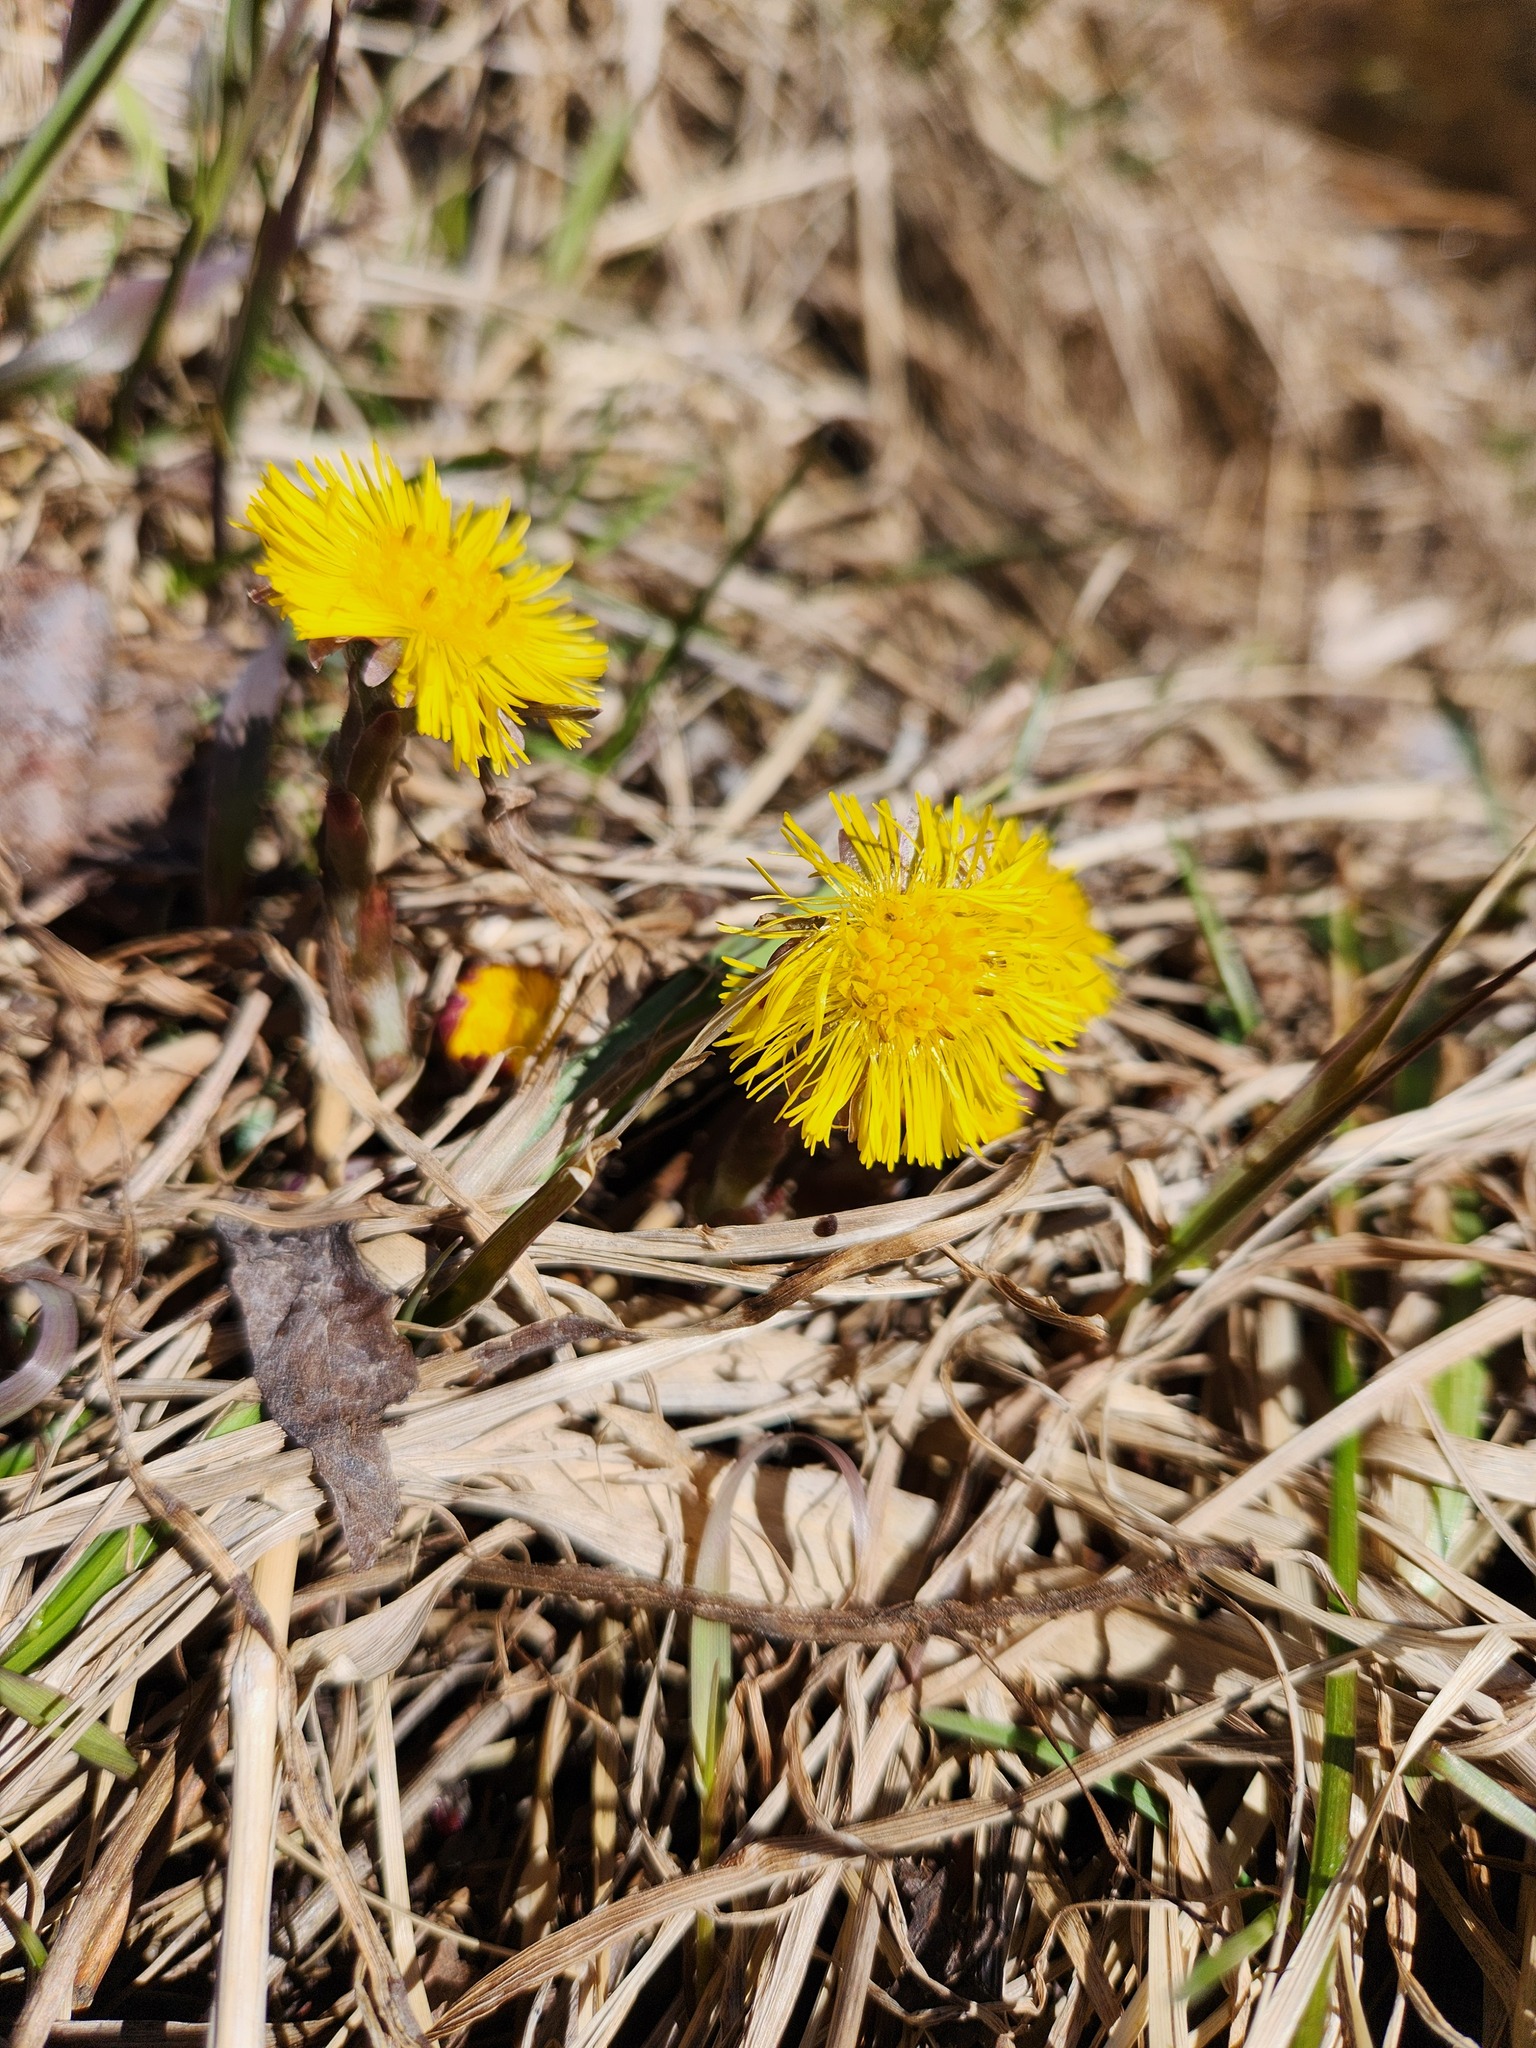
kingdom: Plantae
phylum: Tracheophyta
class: Magnoliopsida
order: Asterales
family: Asteraceae
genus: Tussilago
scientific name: Tussilago farfara
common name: Coltsfoot
